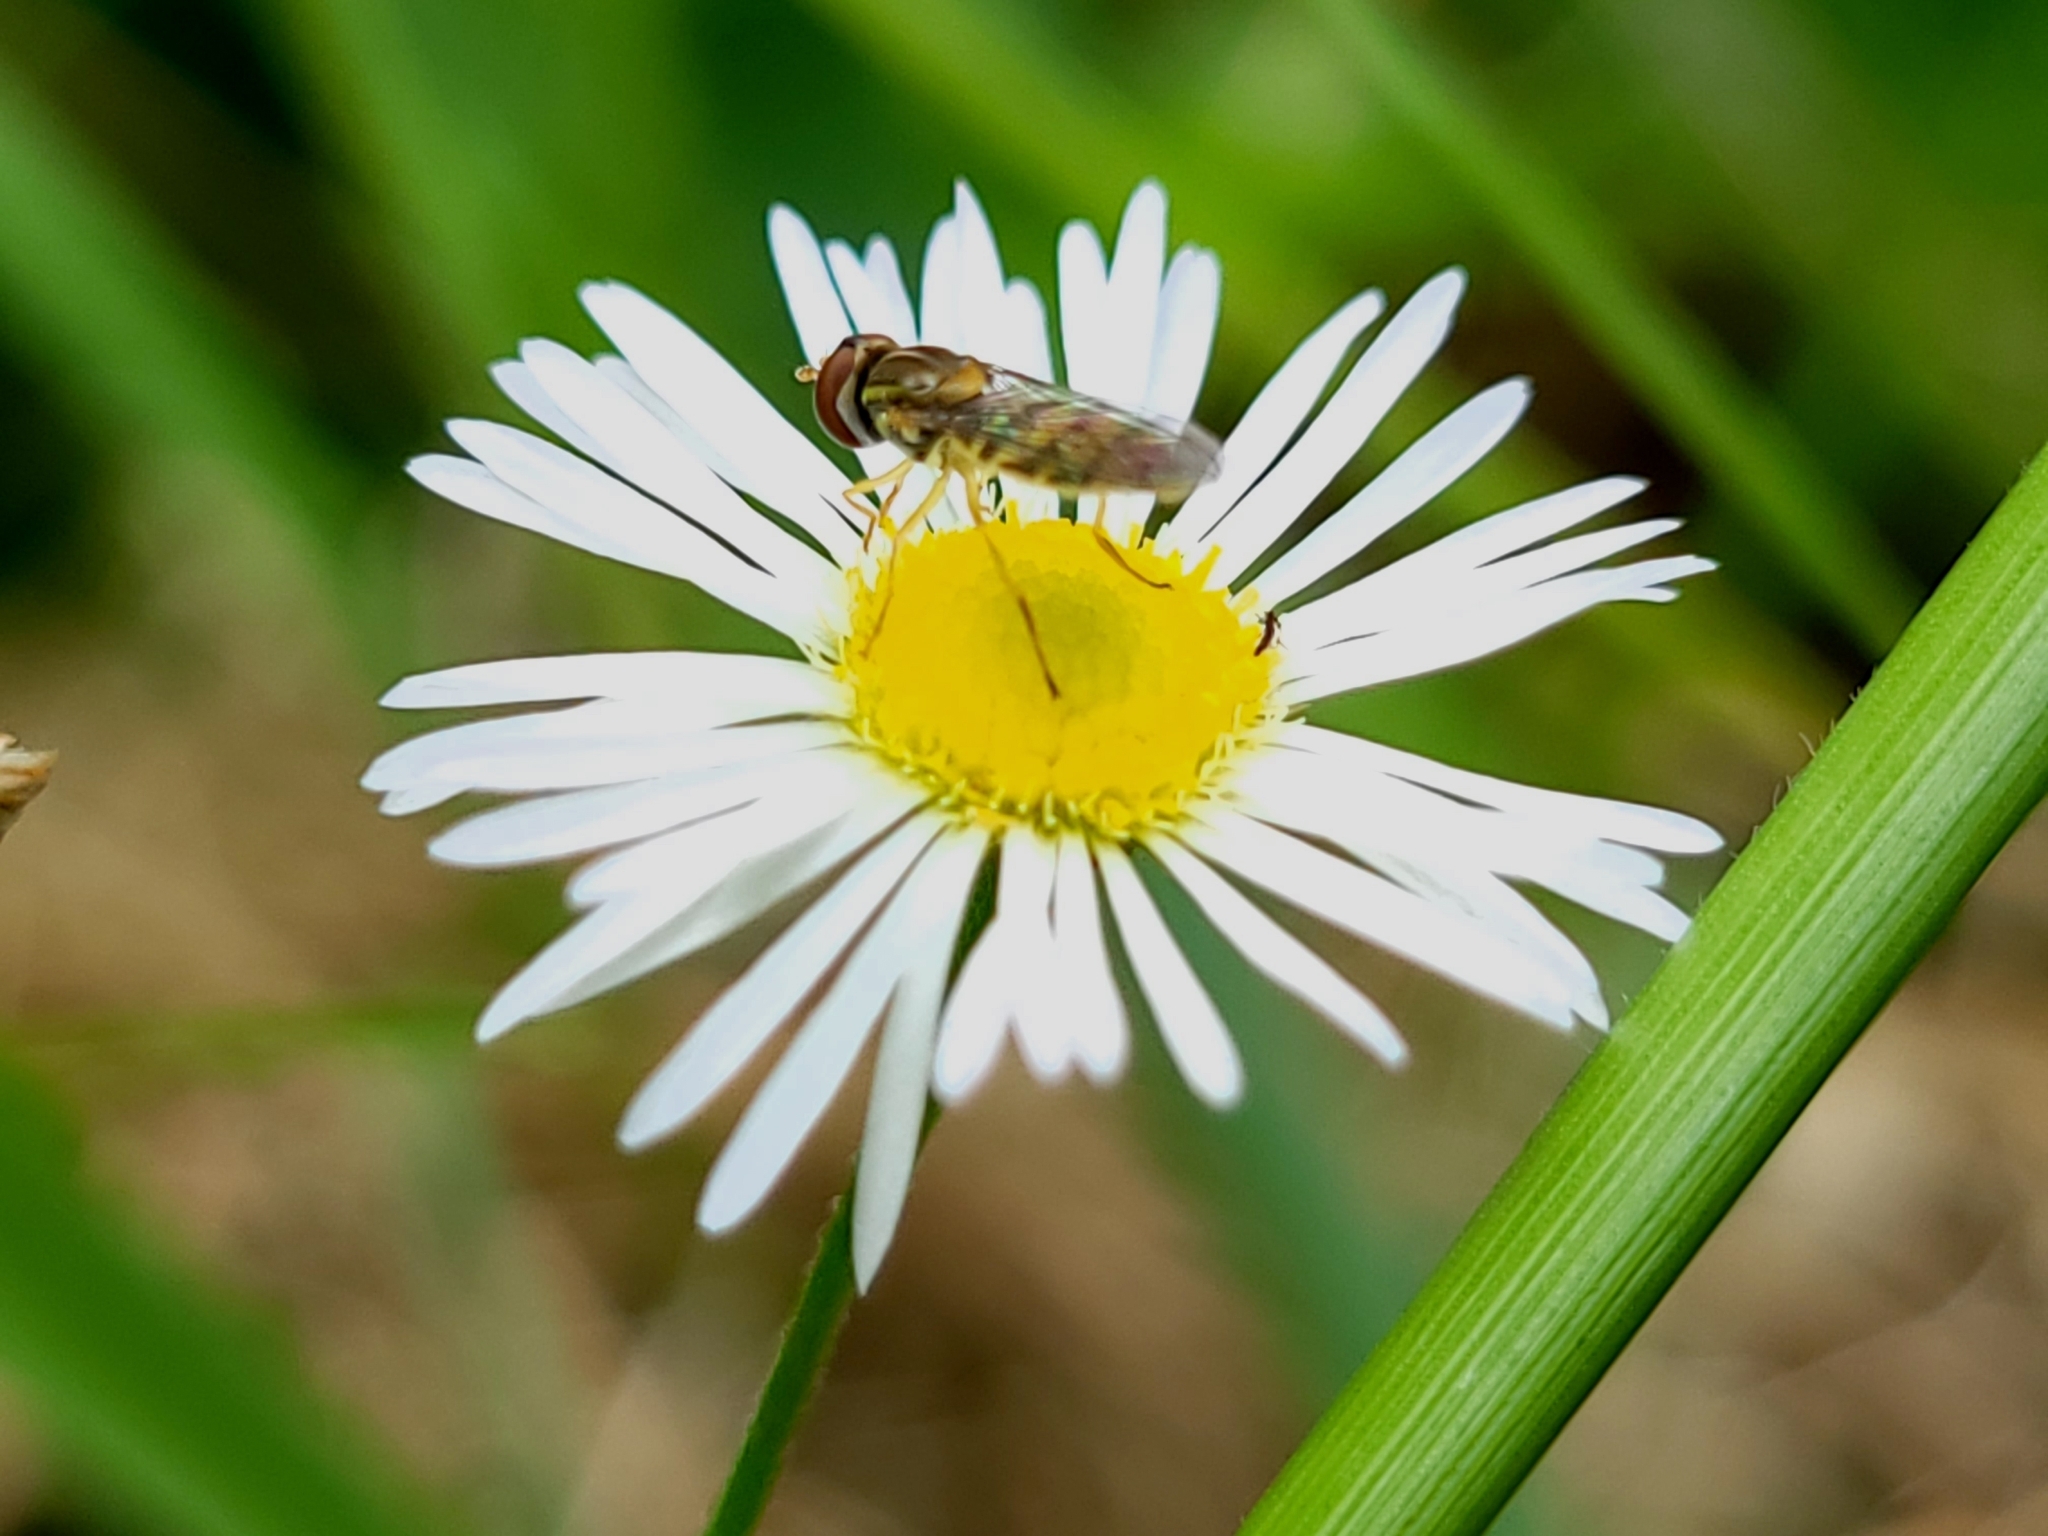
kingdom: Animalia
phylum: Arthropoda
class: Insecta
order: Diptera
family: Syrphidae
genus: Toxomerus
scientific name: Toxomerus marginatus
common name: Syrphid fly
